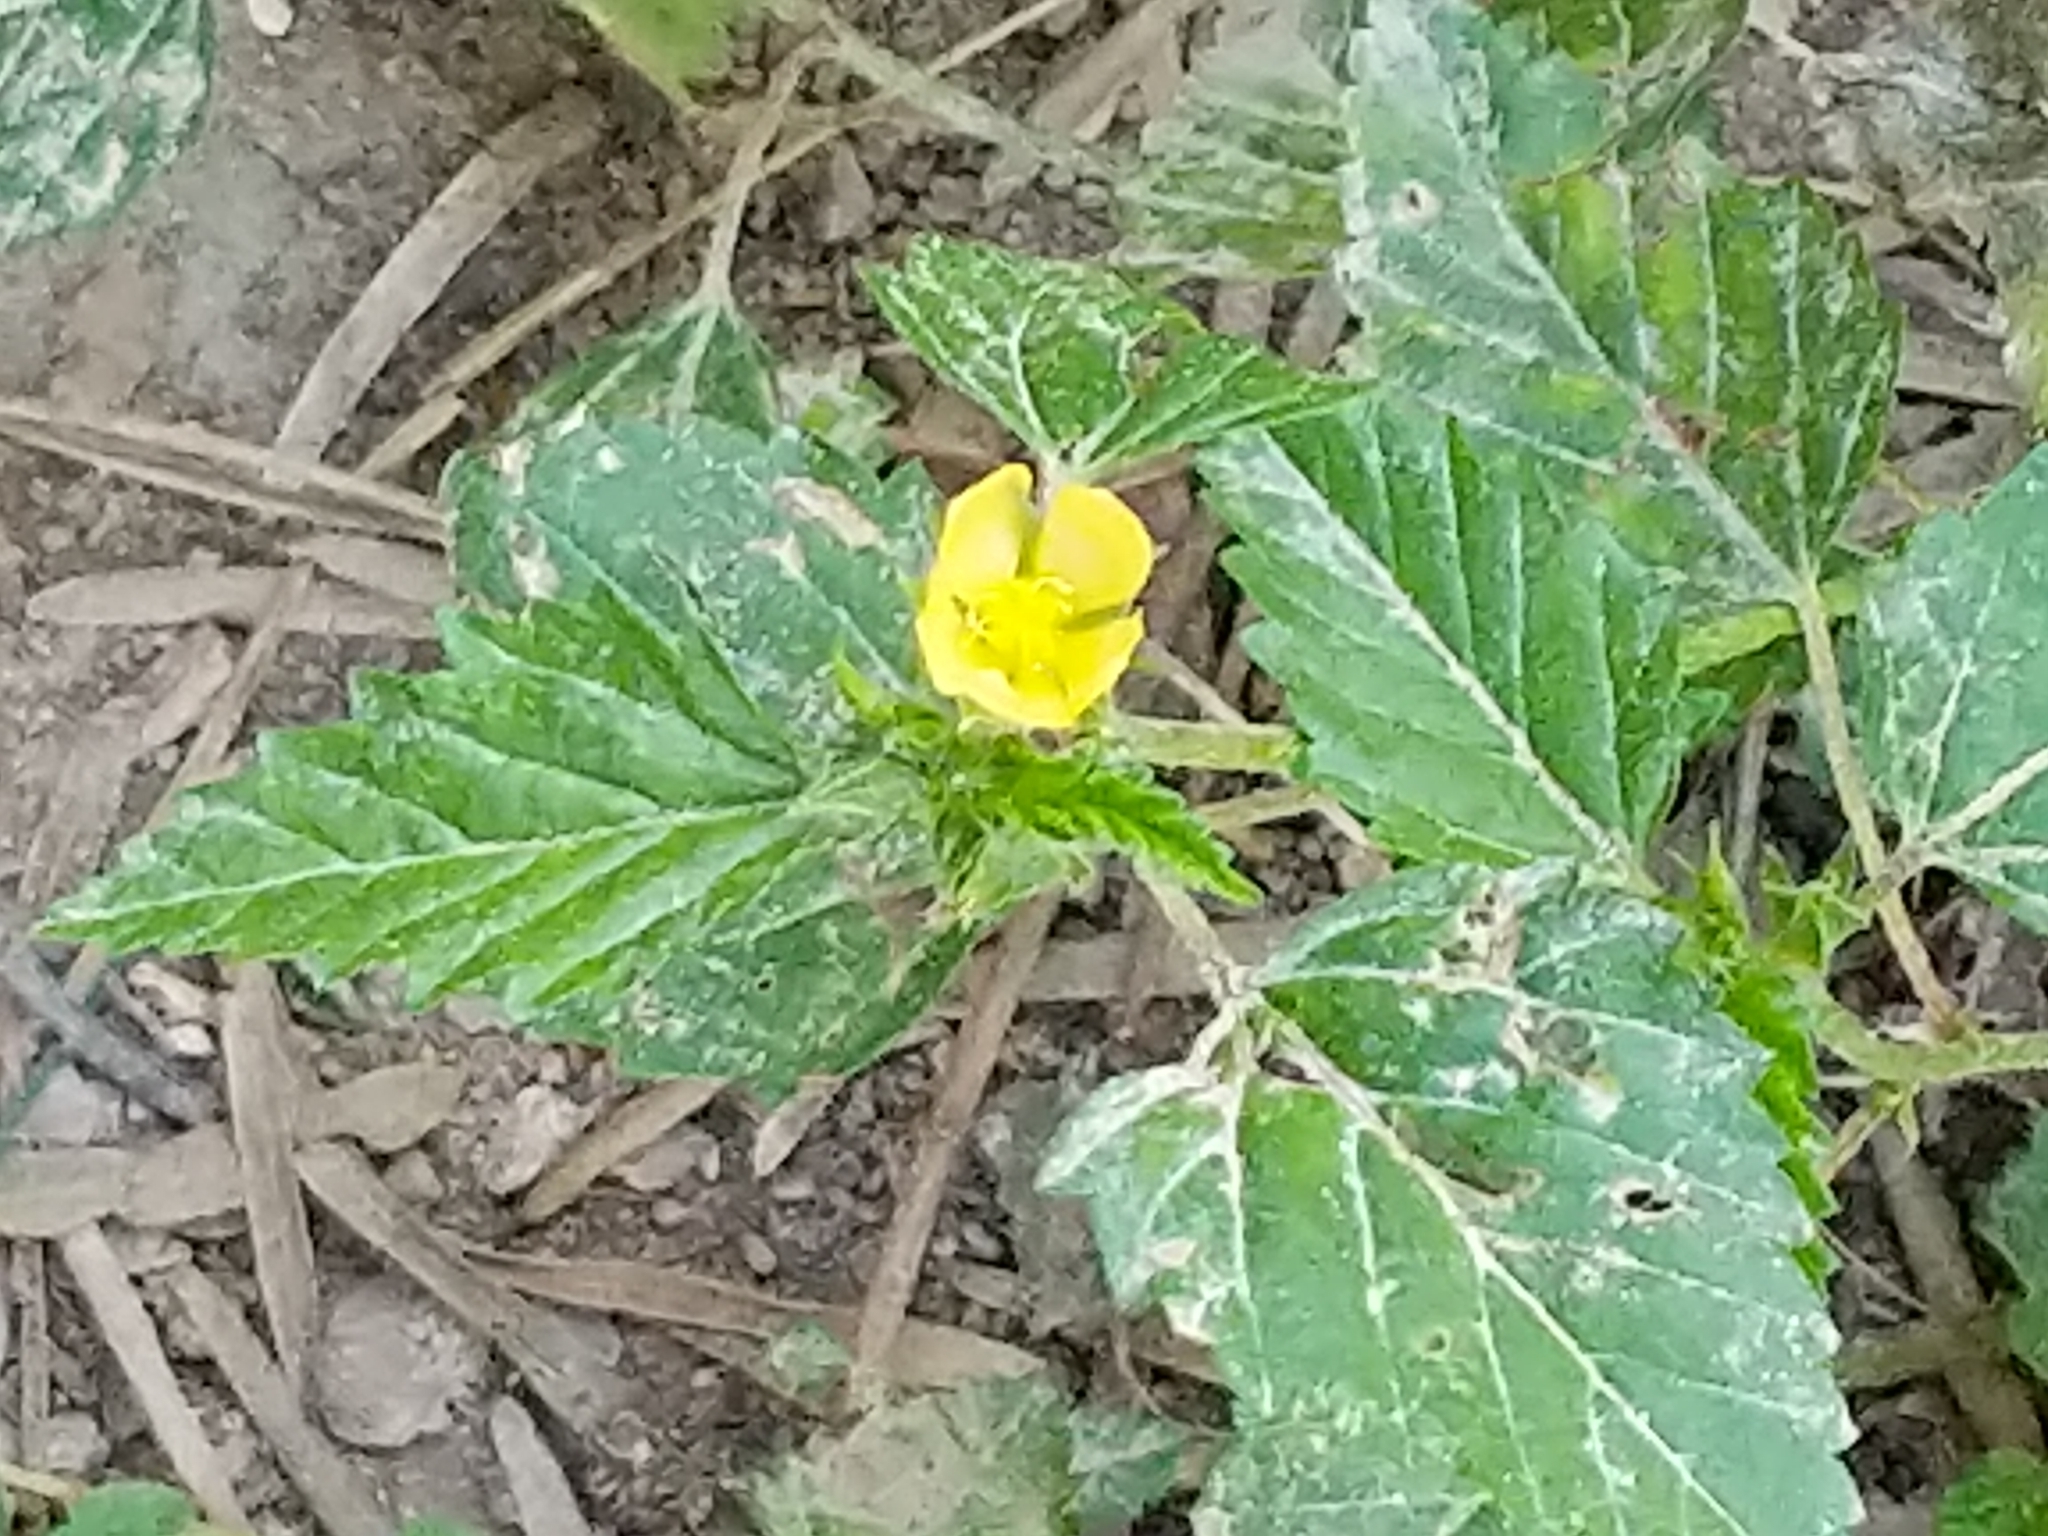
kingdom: Plantae
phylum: Tracheophyta
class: Magnoliopsida
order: Malvales
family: Malvaceae
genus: Malvastrum
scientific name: Malvastrum coromandelianum
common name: Threelobe false mallow
